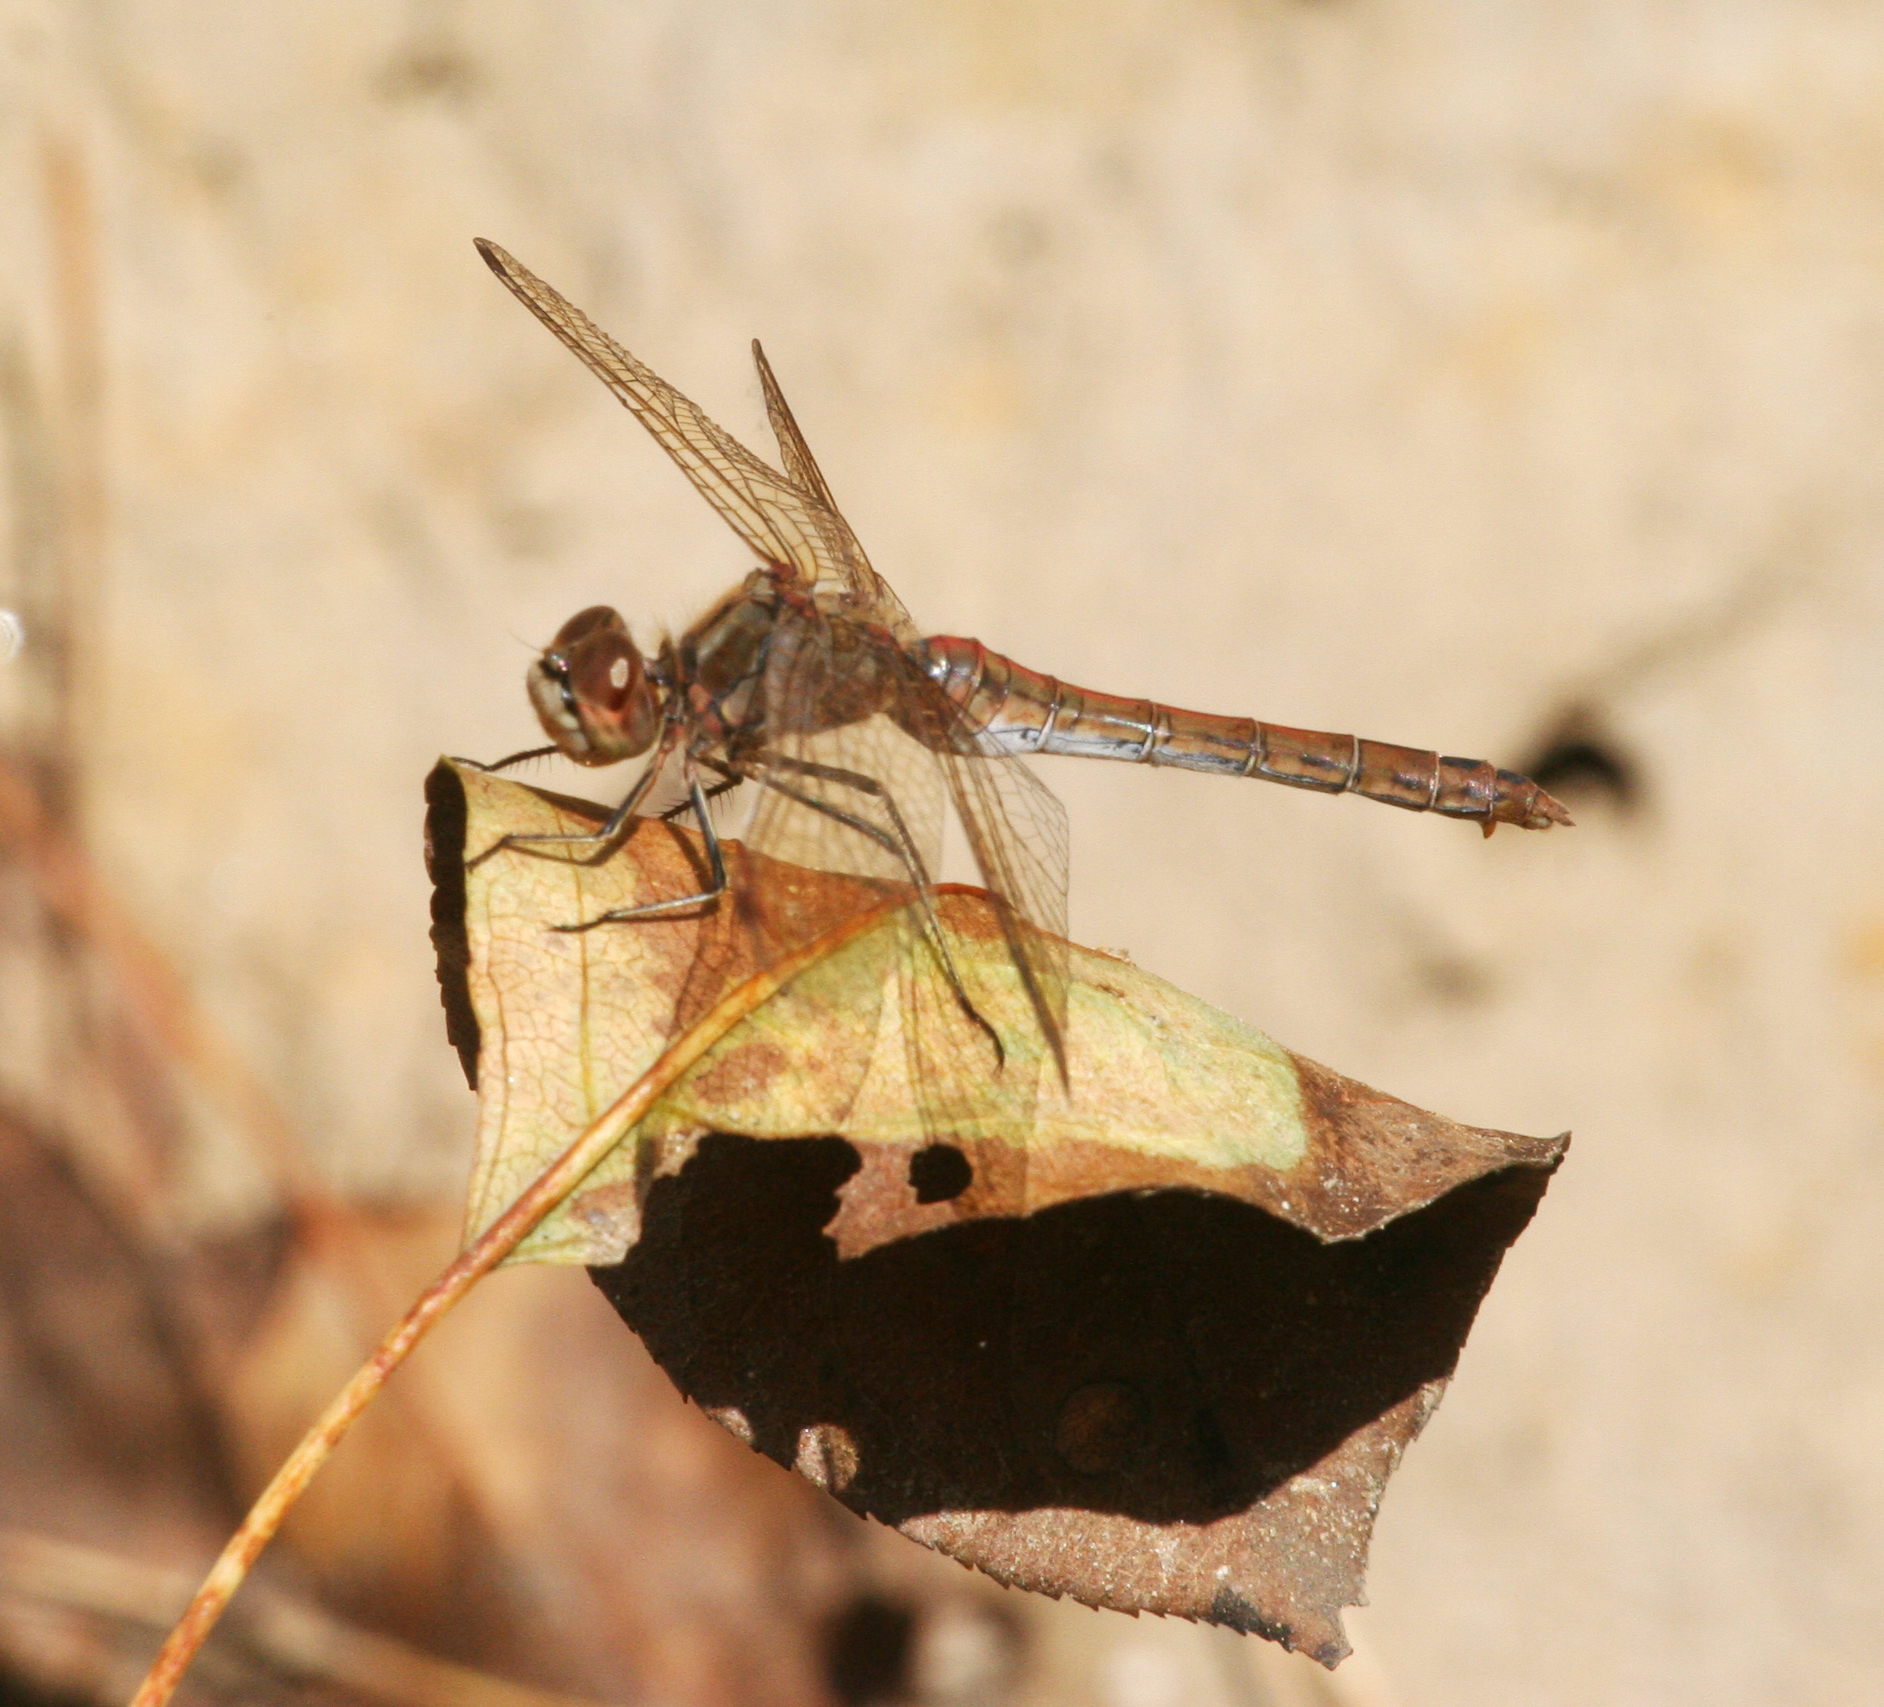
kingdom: Animalia
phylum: Arthropoda
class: Insecta
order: Odonata
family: Libellulidae
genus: Sympetrum
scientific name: Sympetrum vulgatum
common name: Vagrant darter
